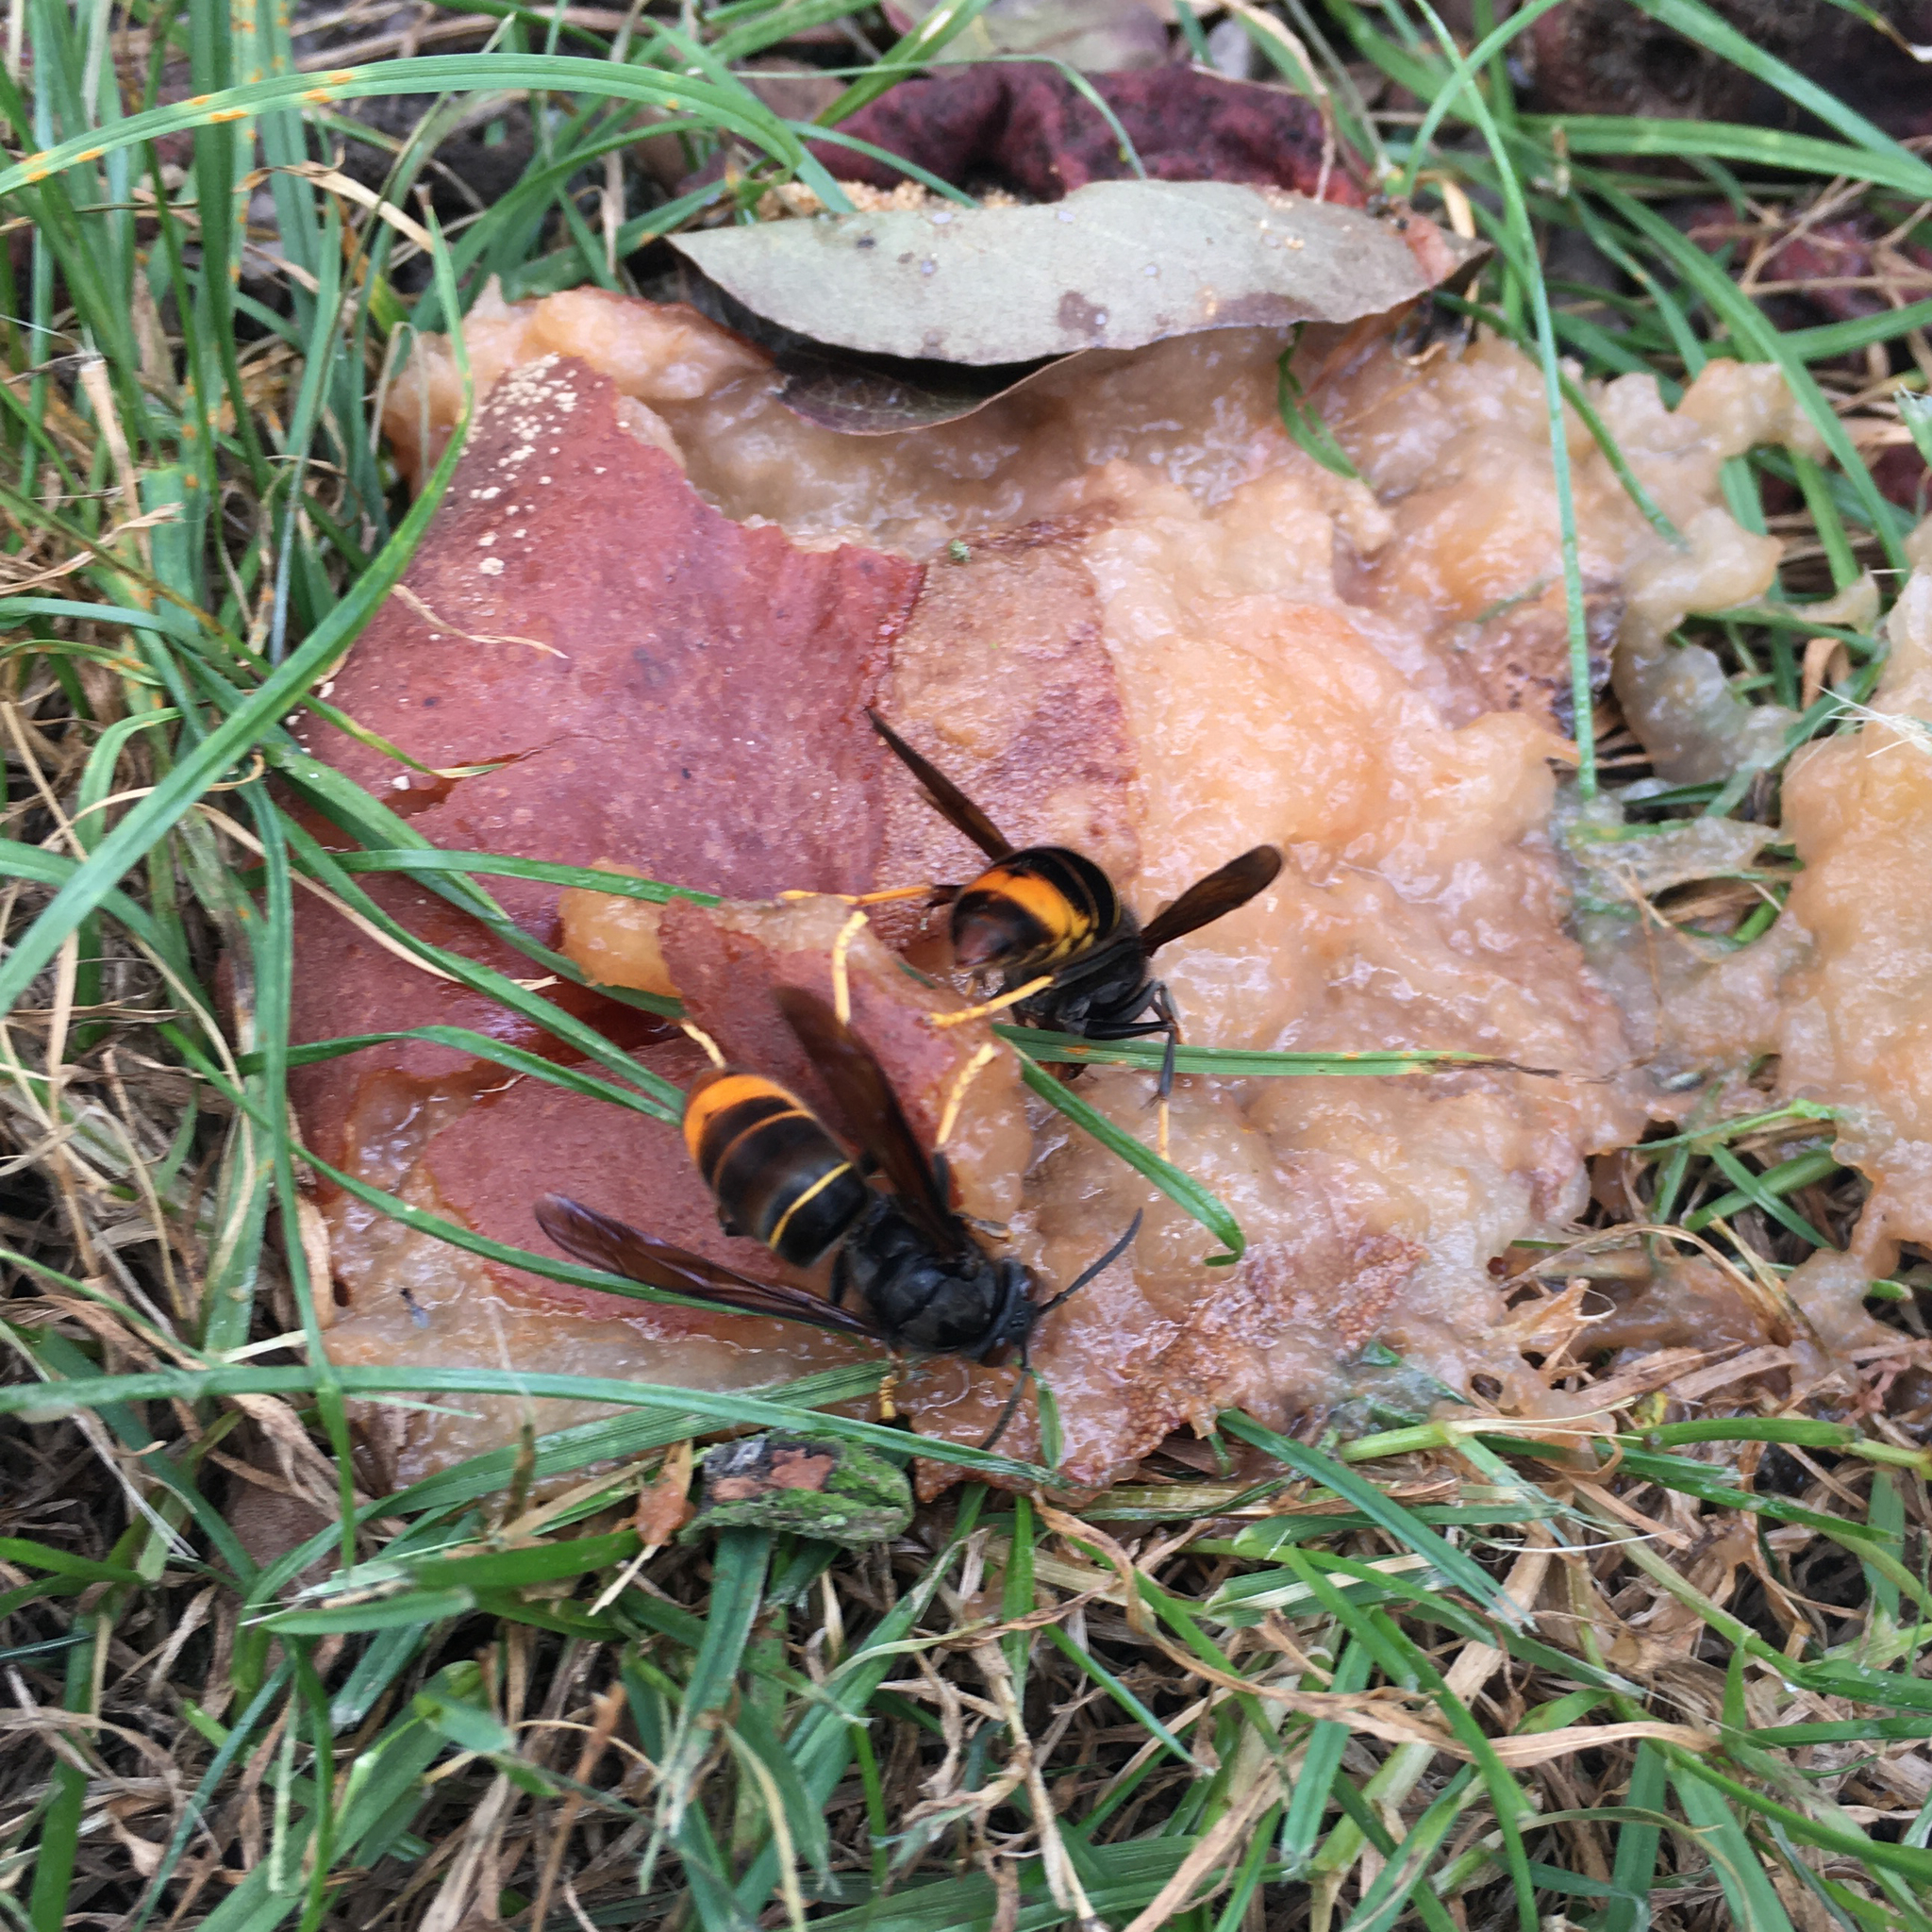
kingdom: Animalia
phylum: Arthropoda
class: Insecta
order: Hymenoptera
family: Vespidae
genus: Vespa
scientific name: Vespa velutina
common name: Asian hornet
